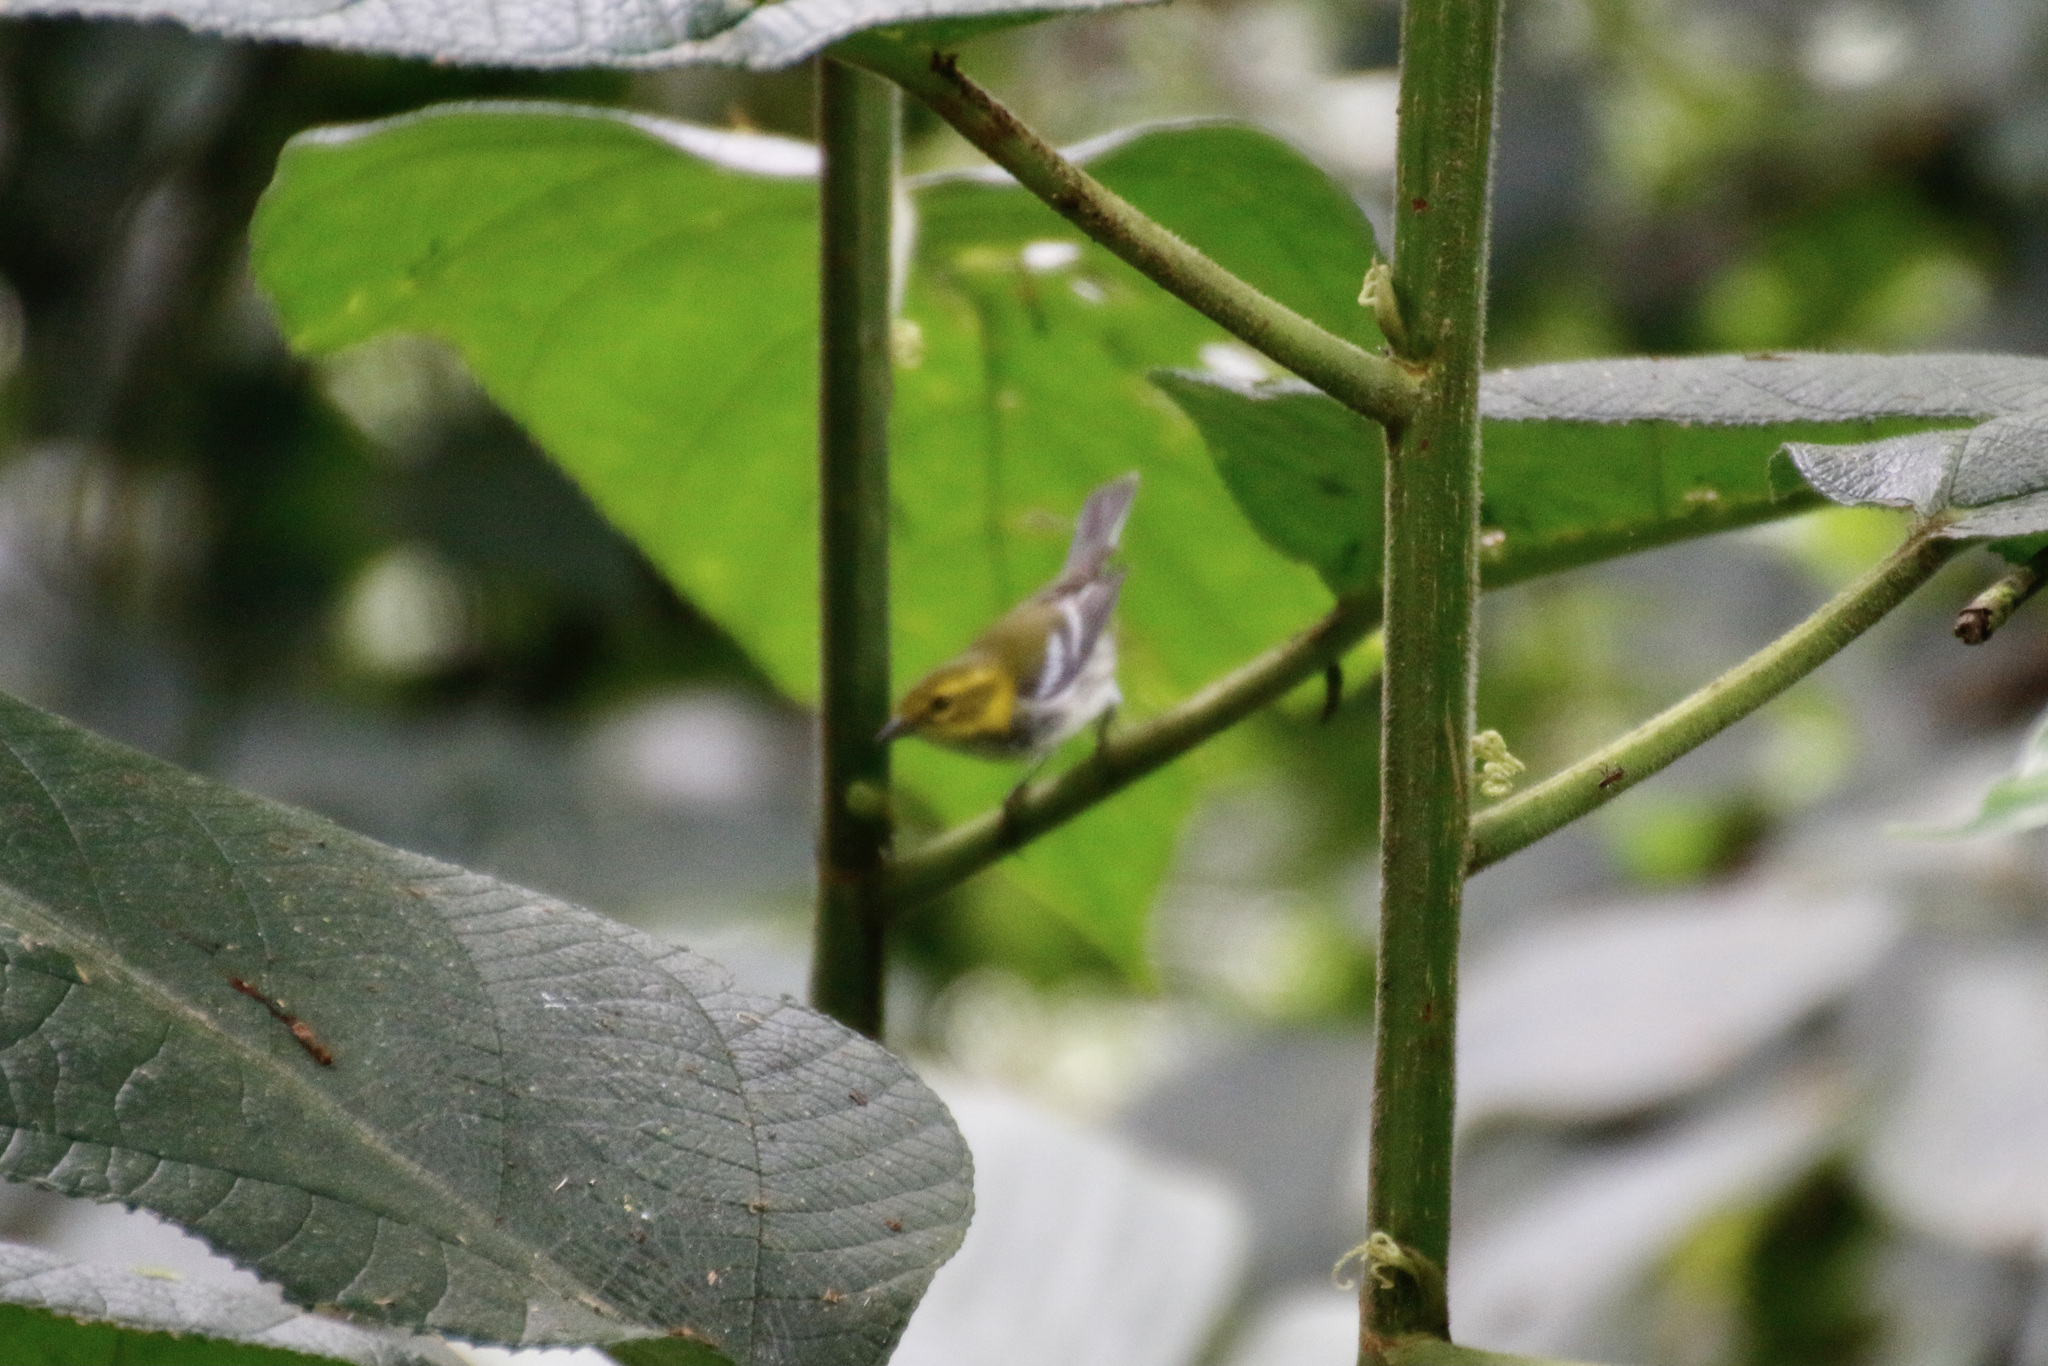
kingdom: Animalia
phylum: Chordata
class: Aves
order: Passeriformes
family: Parulidae
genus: Setophaga
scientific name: Setophaga virens
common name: Black-throated green warbler
